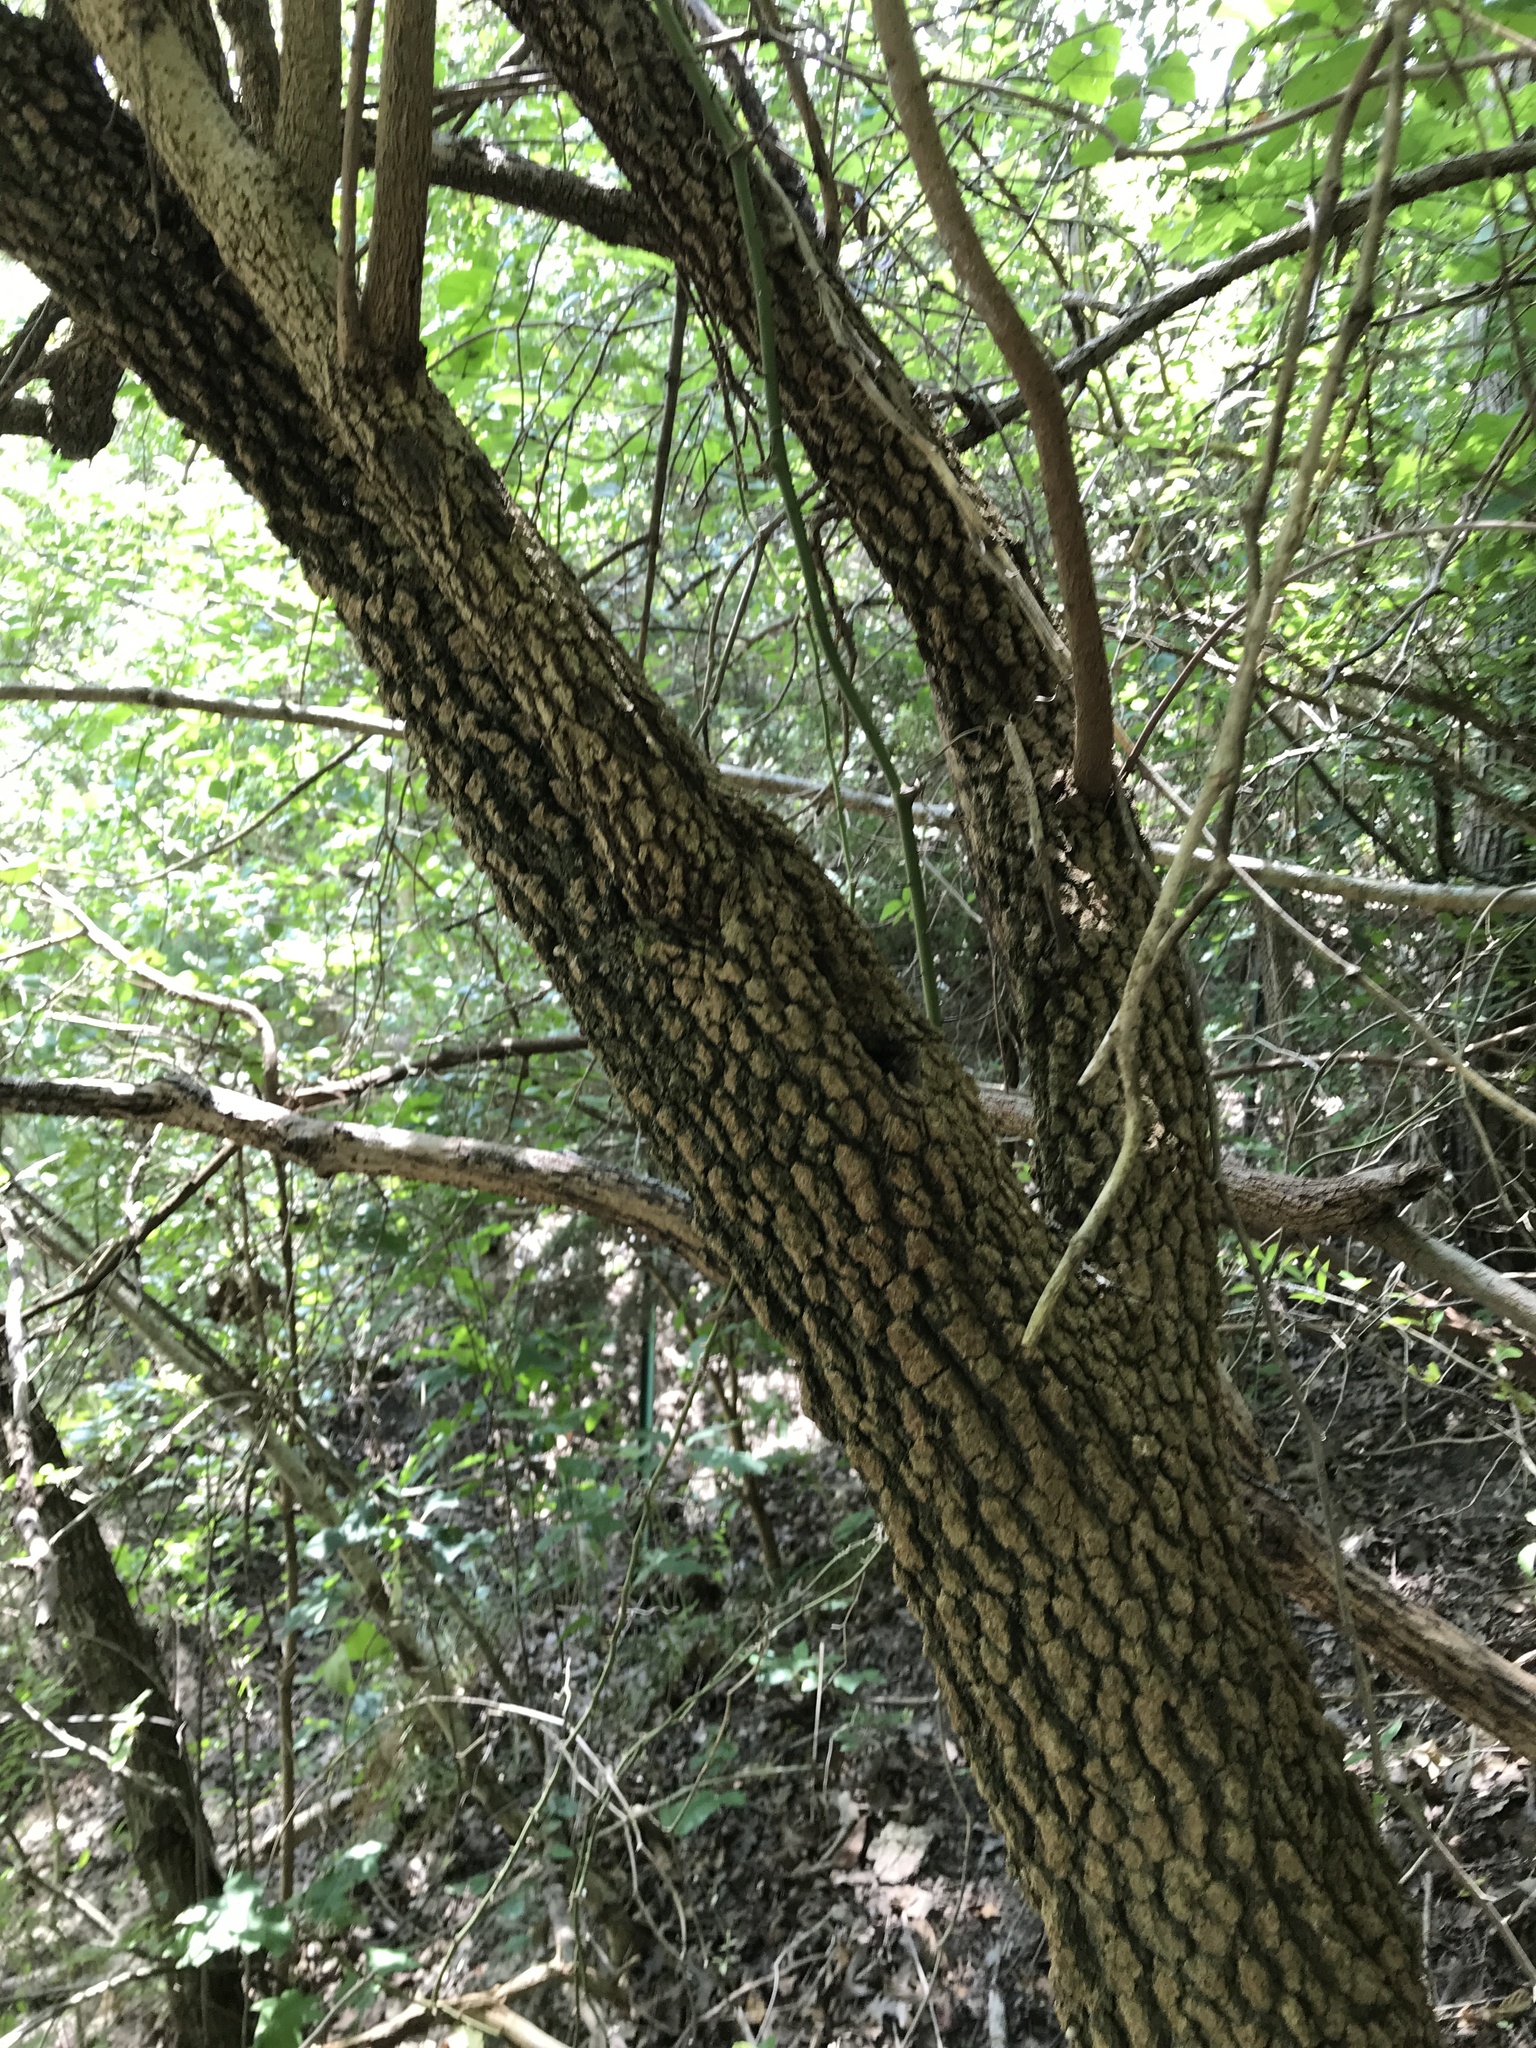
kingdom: Plantae
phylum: Tracheophyta
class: Magnoliopsida
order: Dipsacales
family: Viburnaceae
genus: Viburnum
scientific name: Viburnum rufidulum
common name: Blue haw
